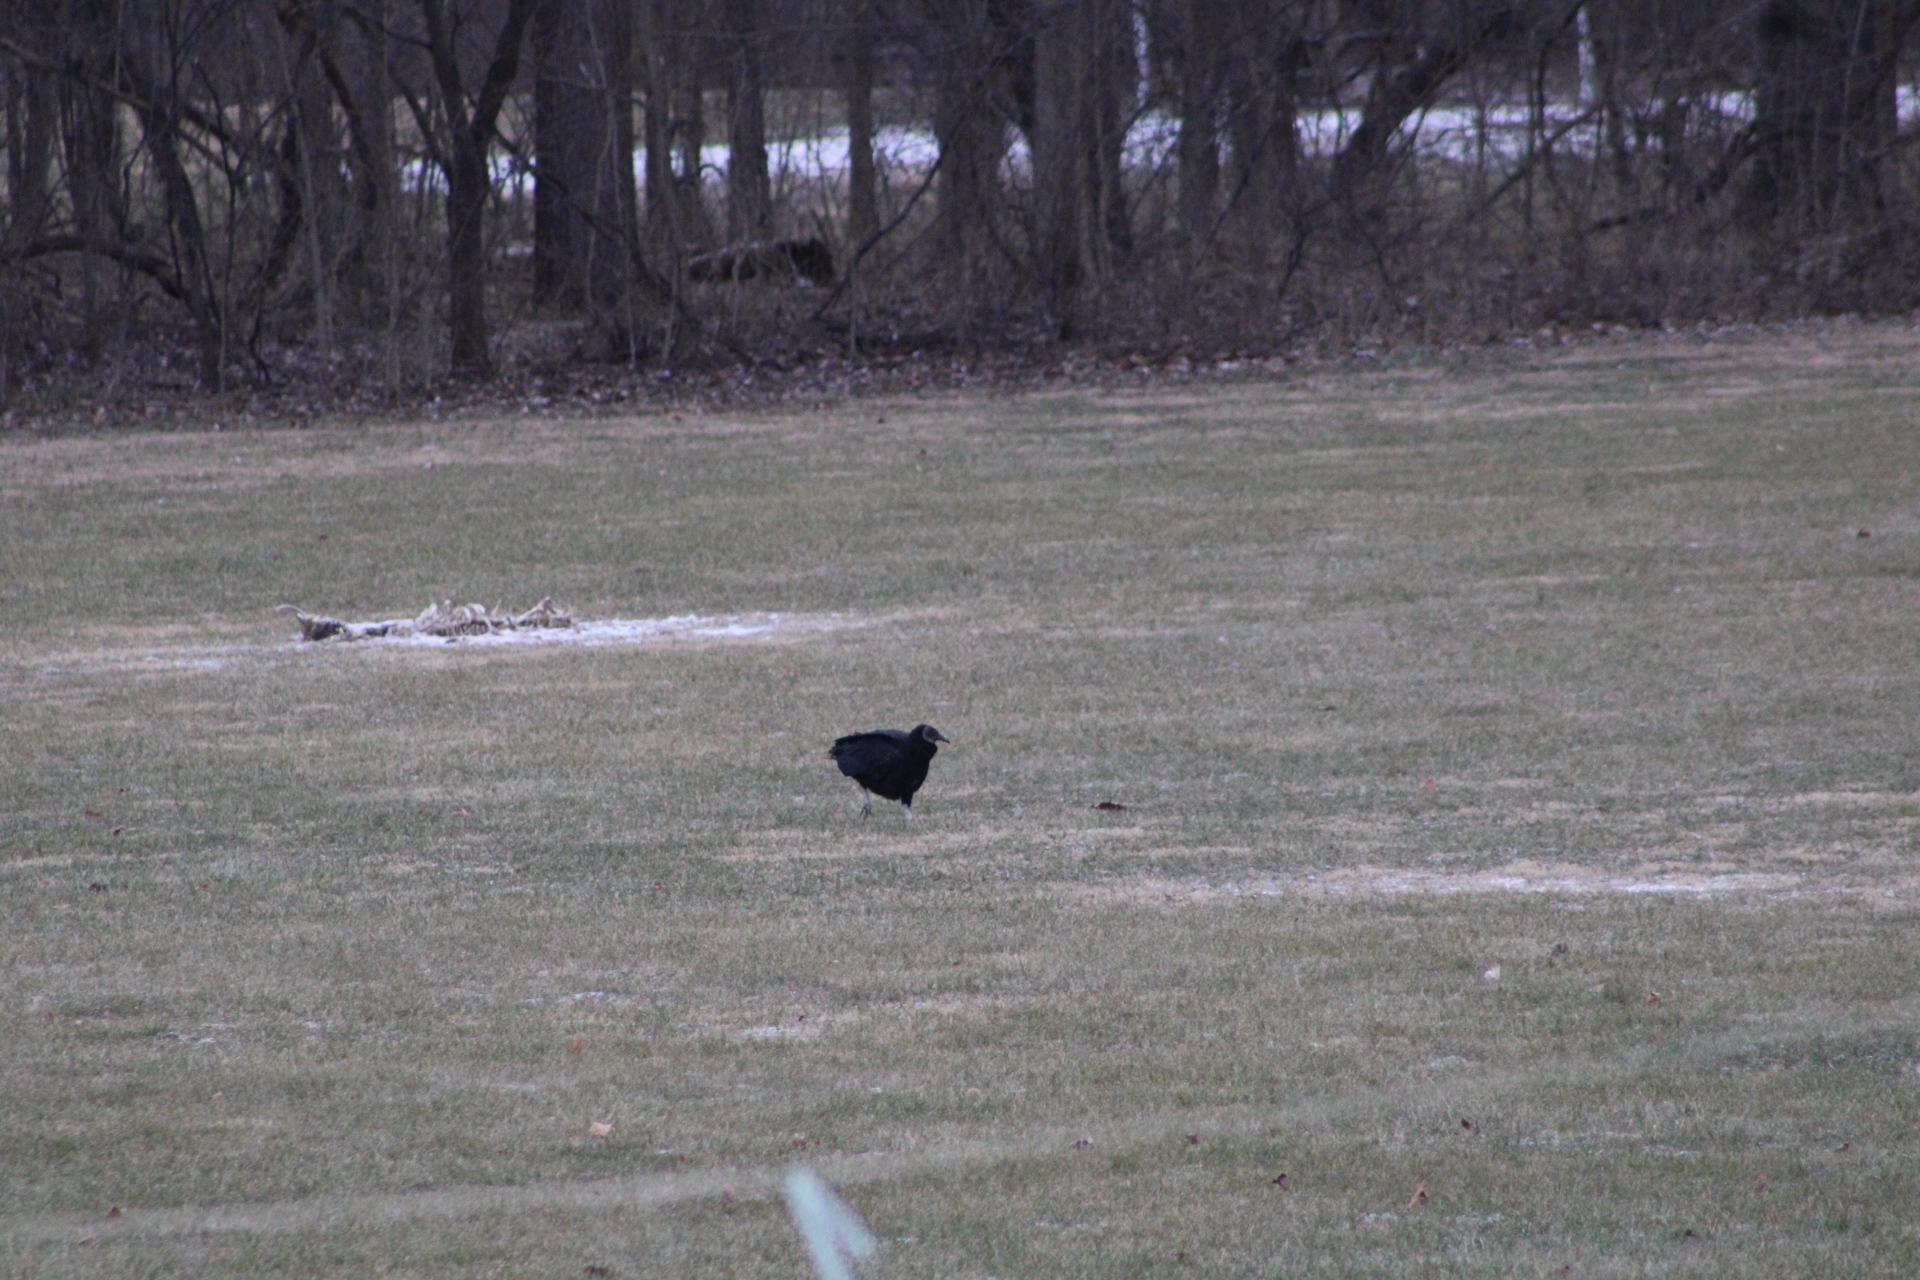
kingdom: Animalia
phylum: Chordata
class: Aves
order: Accipitriformes
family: Cathartidae
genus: Coragyps
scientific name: Coragyps atratus
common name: Black vulture
